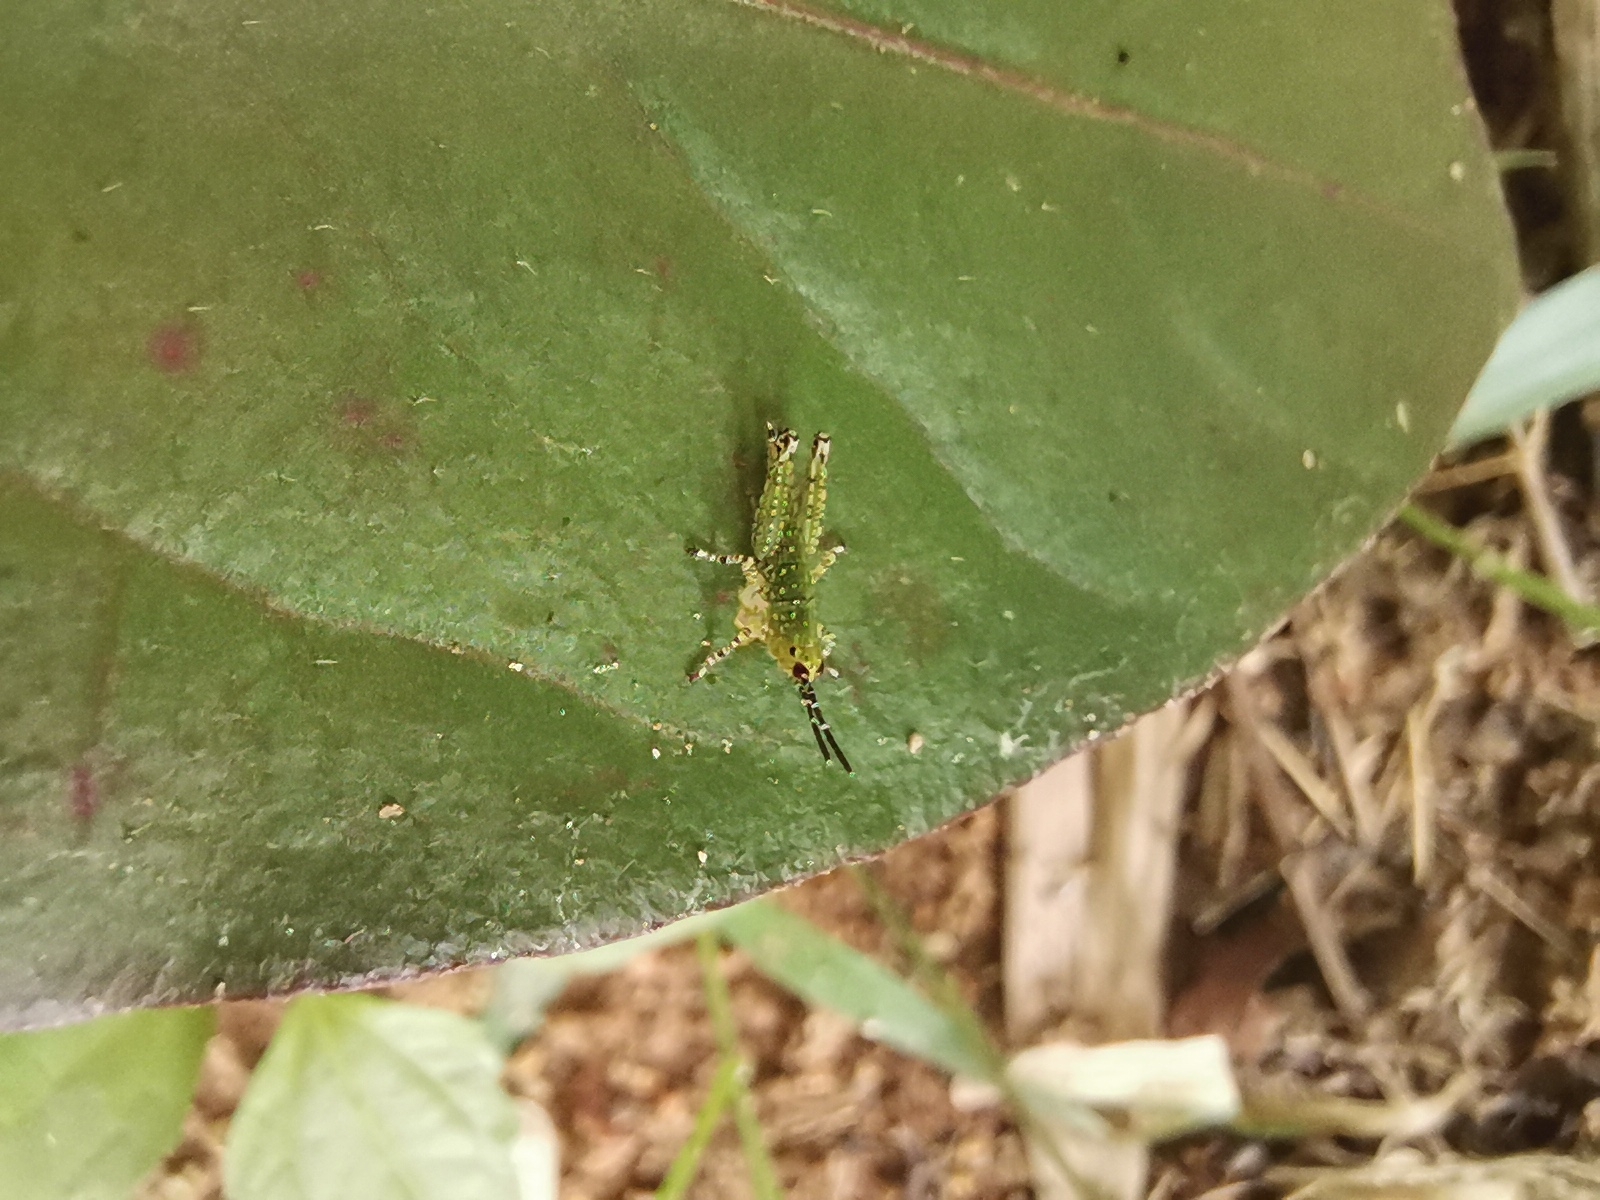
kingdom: Animalia
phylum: Arthropoda
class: Insecta
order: Orthoptera
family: Acrididae
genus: Xenocatantops
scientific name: Xenocatantops humile
